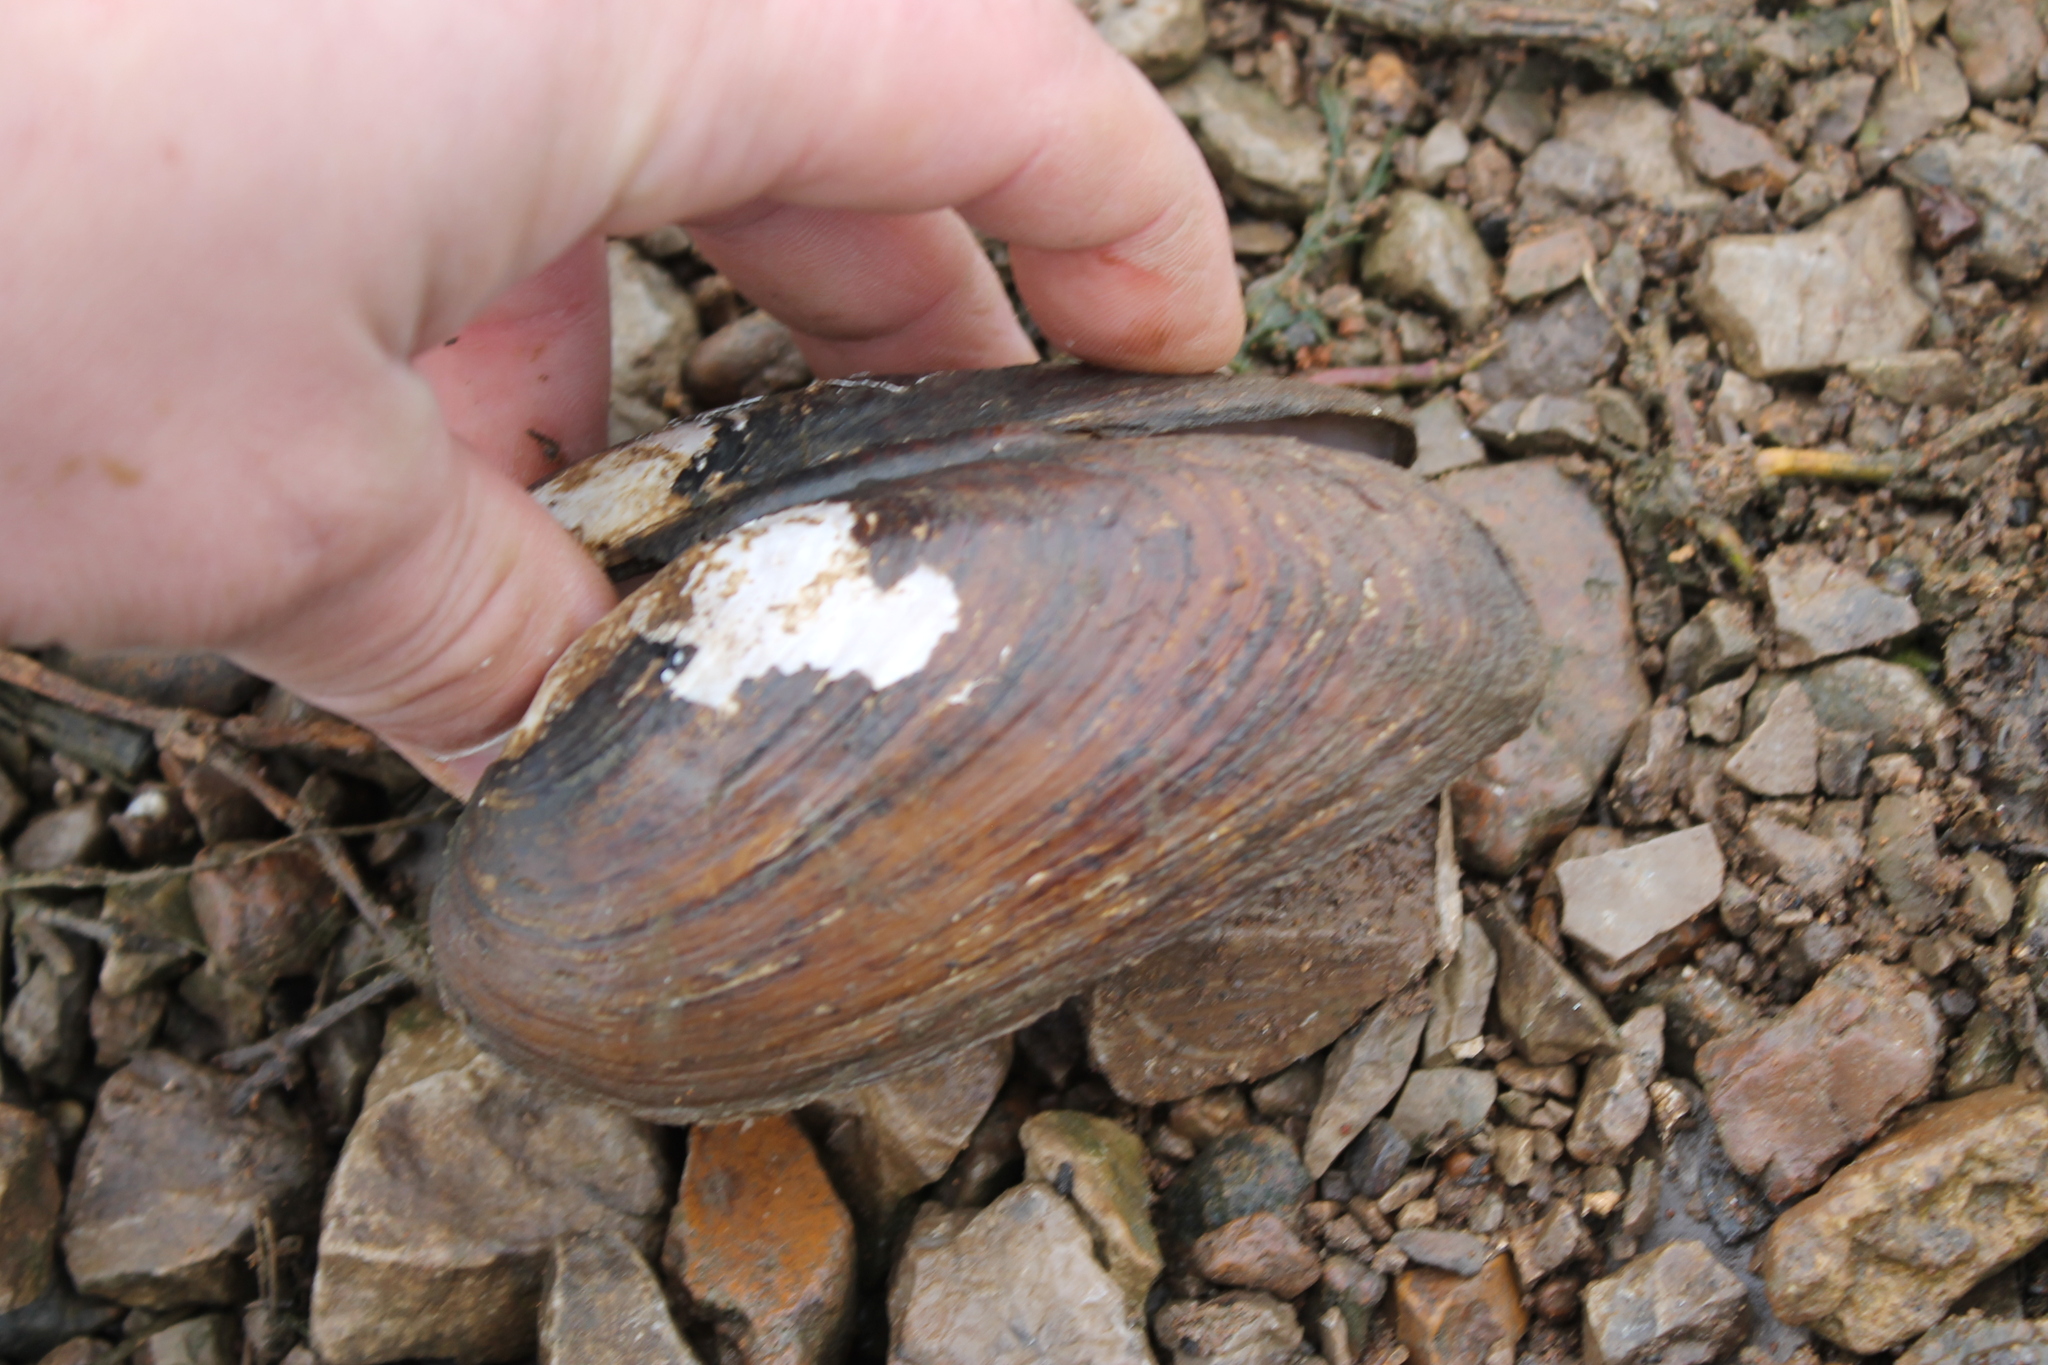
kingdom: Animalia
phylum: Mollusca
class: Bivalvia
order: Unionida
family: Unionidae
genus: Eurynia
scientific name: Eurynia dilatata
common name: Spike
